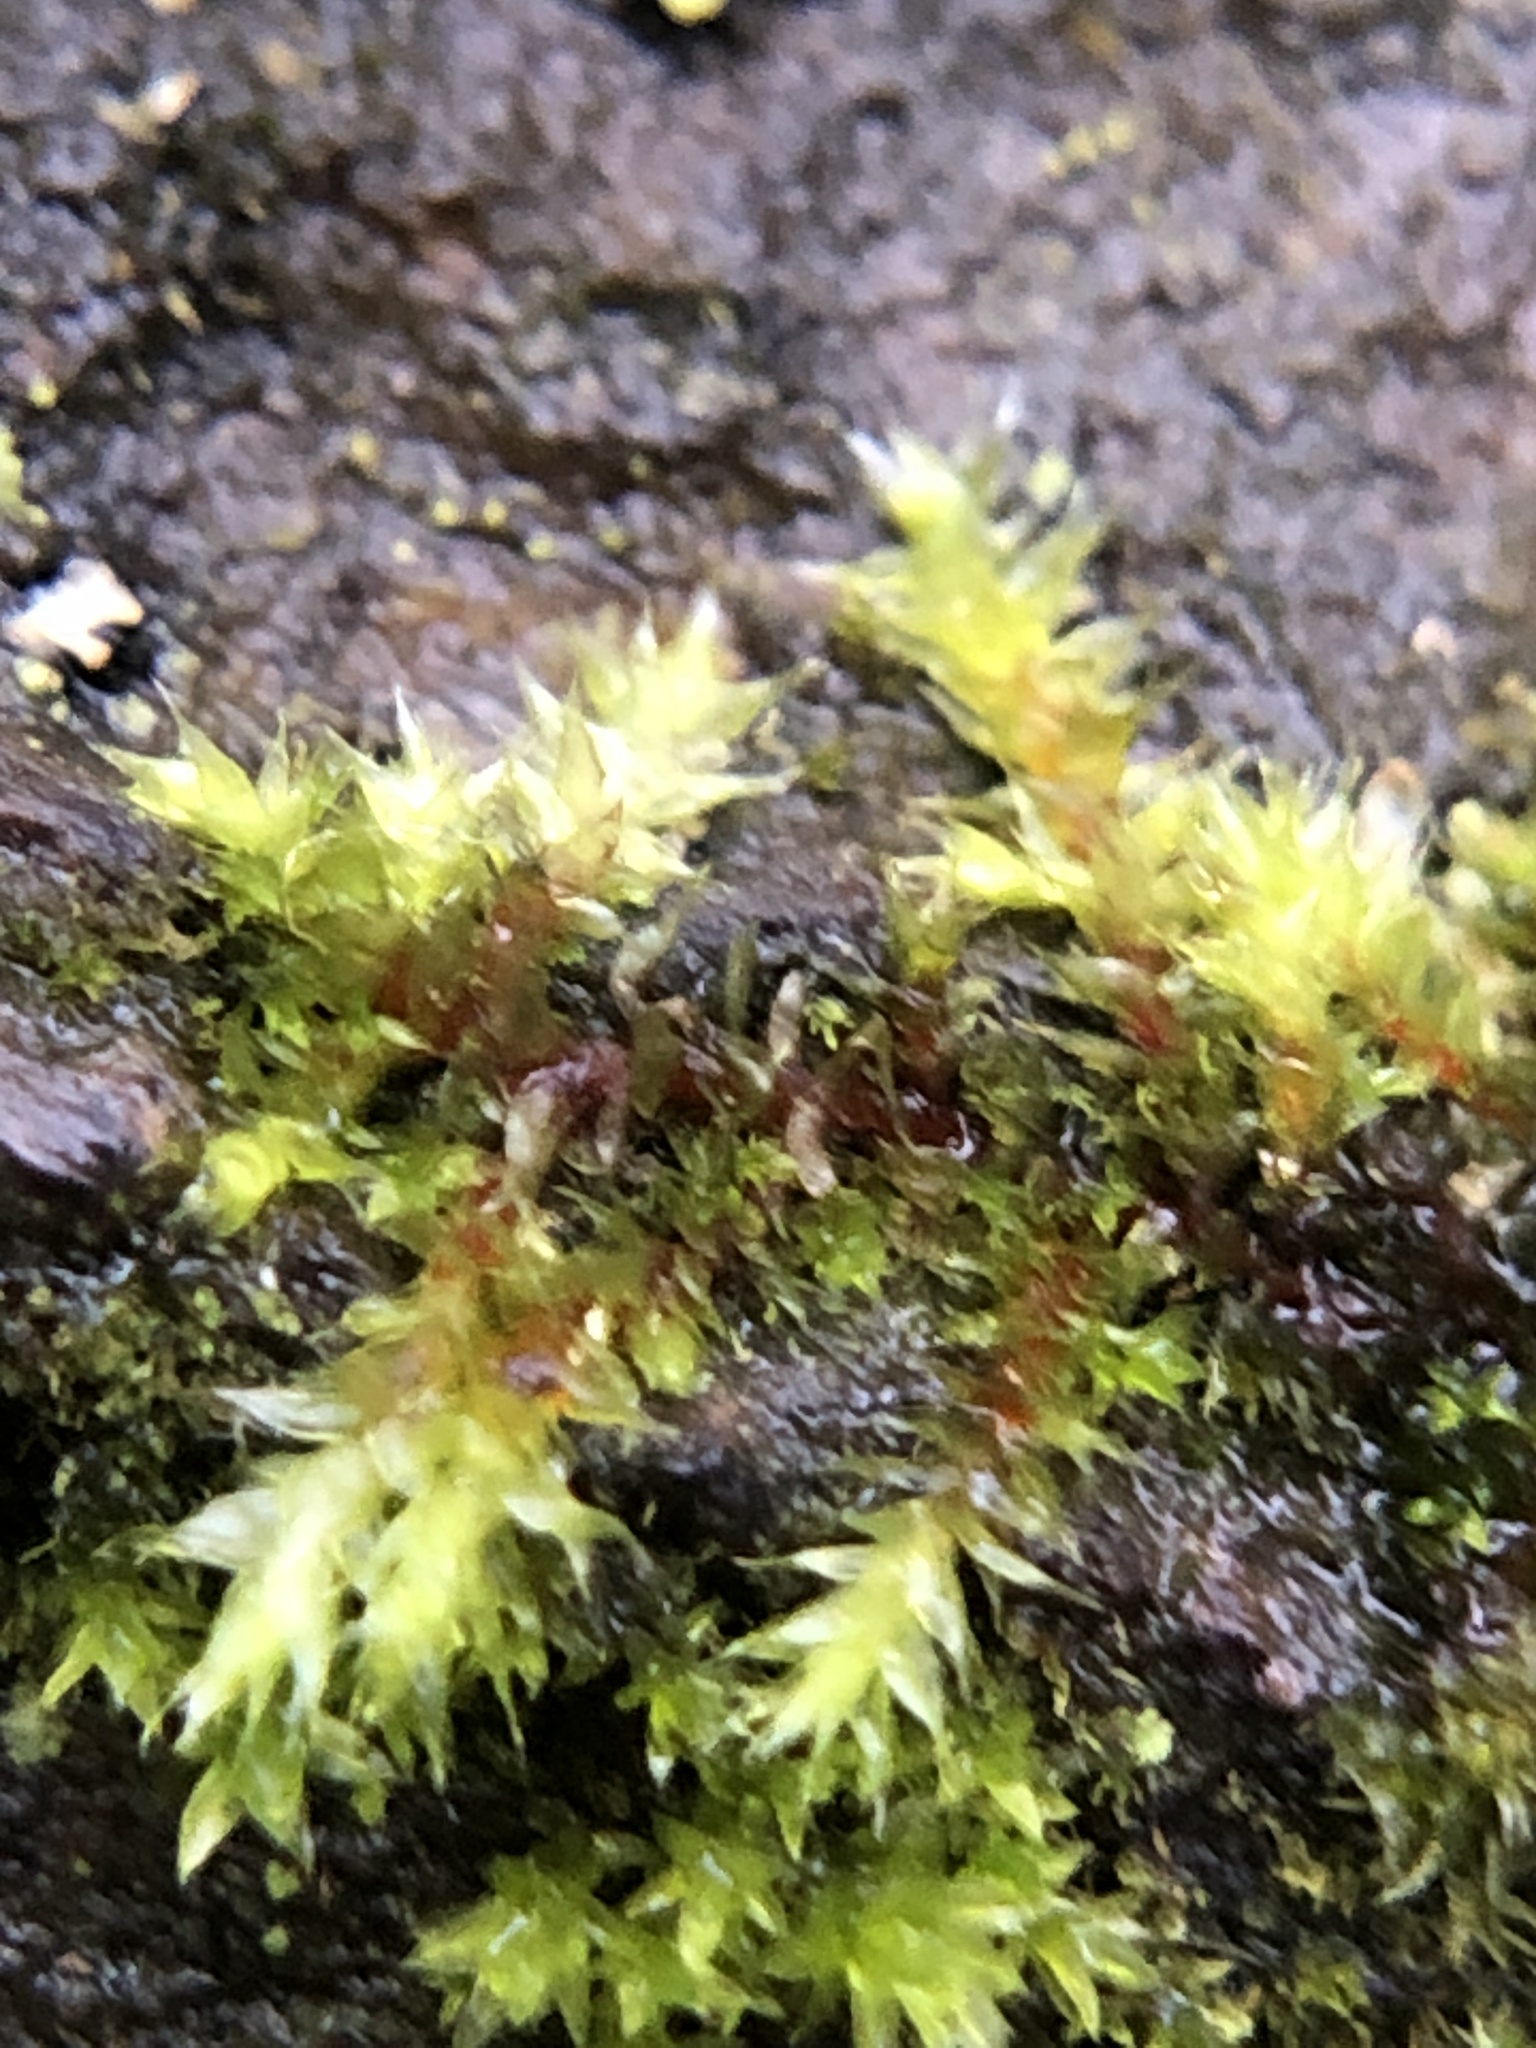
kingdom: Plantae
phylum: Bryophyta
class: Bryopsida
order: Hypnales
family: Cryphaeaceae
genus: Cryphaea
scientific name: Cryphaea heteromalla
